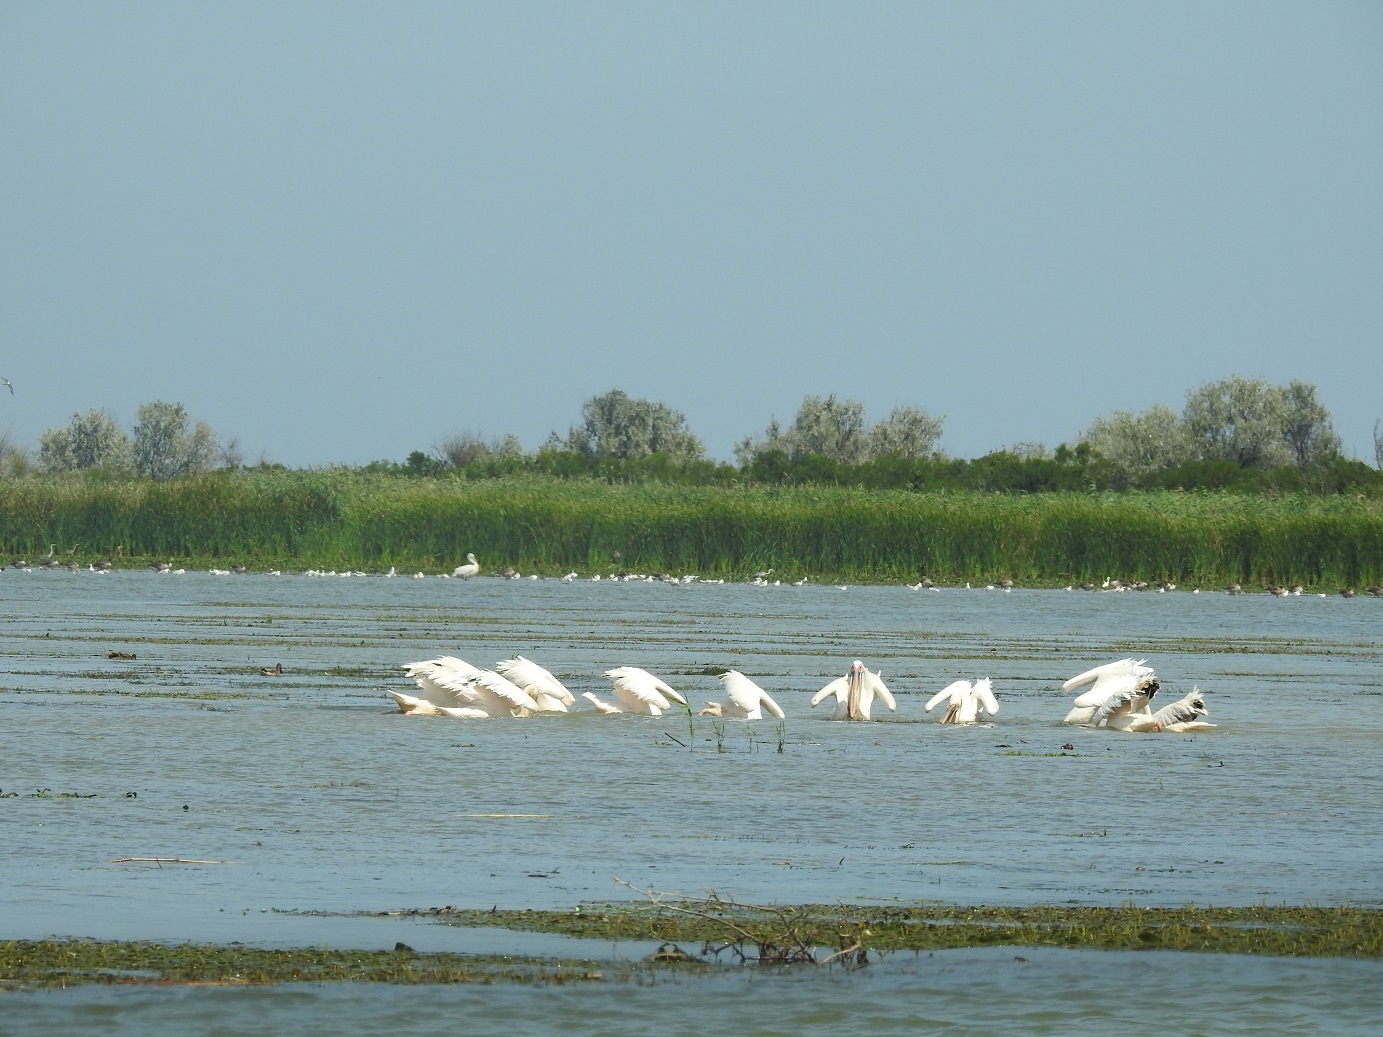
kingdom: Animalia
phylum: Chordata
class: Aves
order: Pelecaniformes
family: Pelecanidae
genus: Pelecanus
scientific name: Pelecanus onocrotalus
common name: Great white pelican
